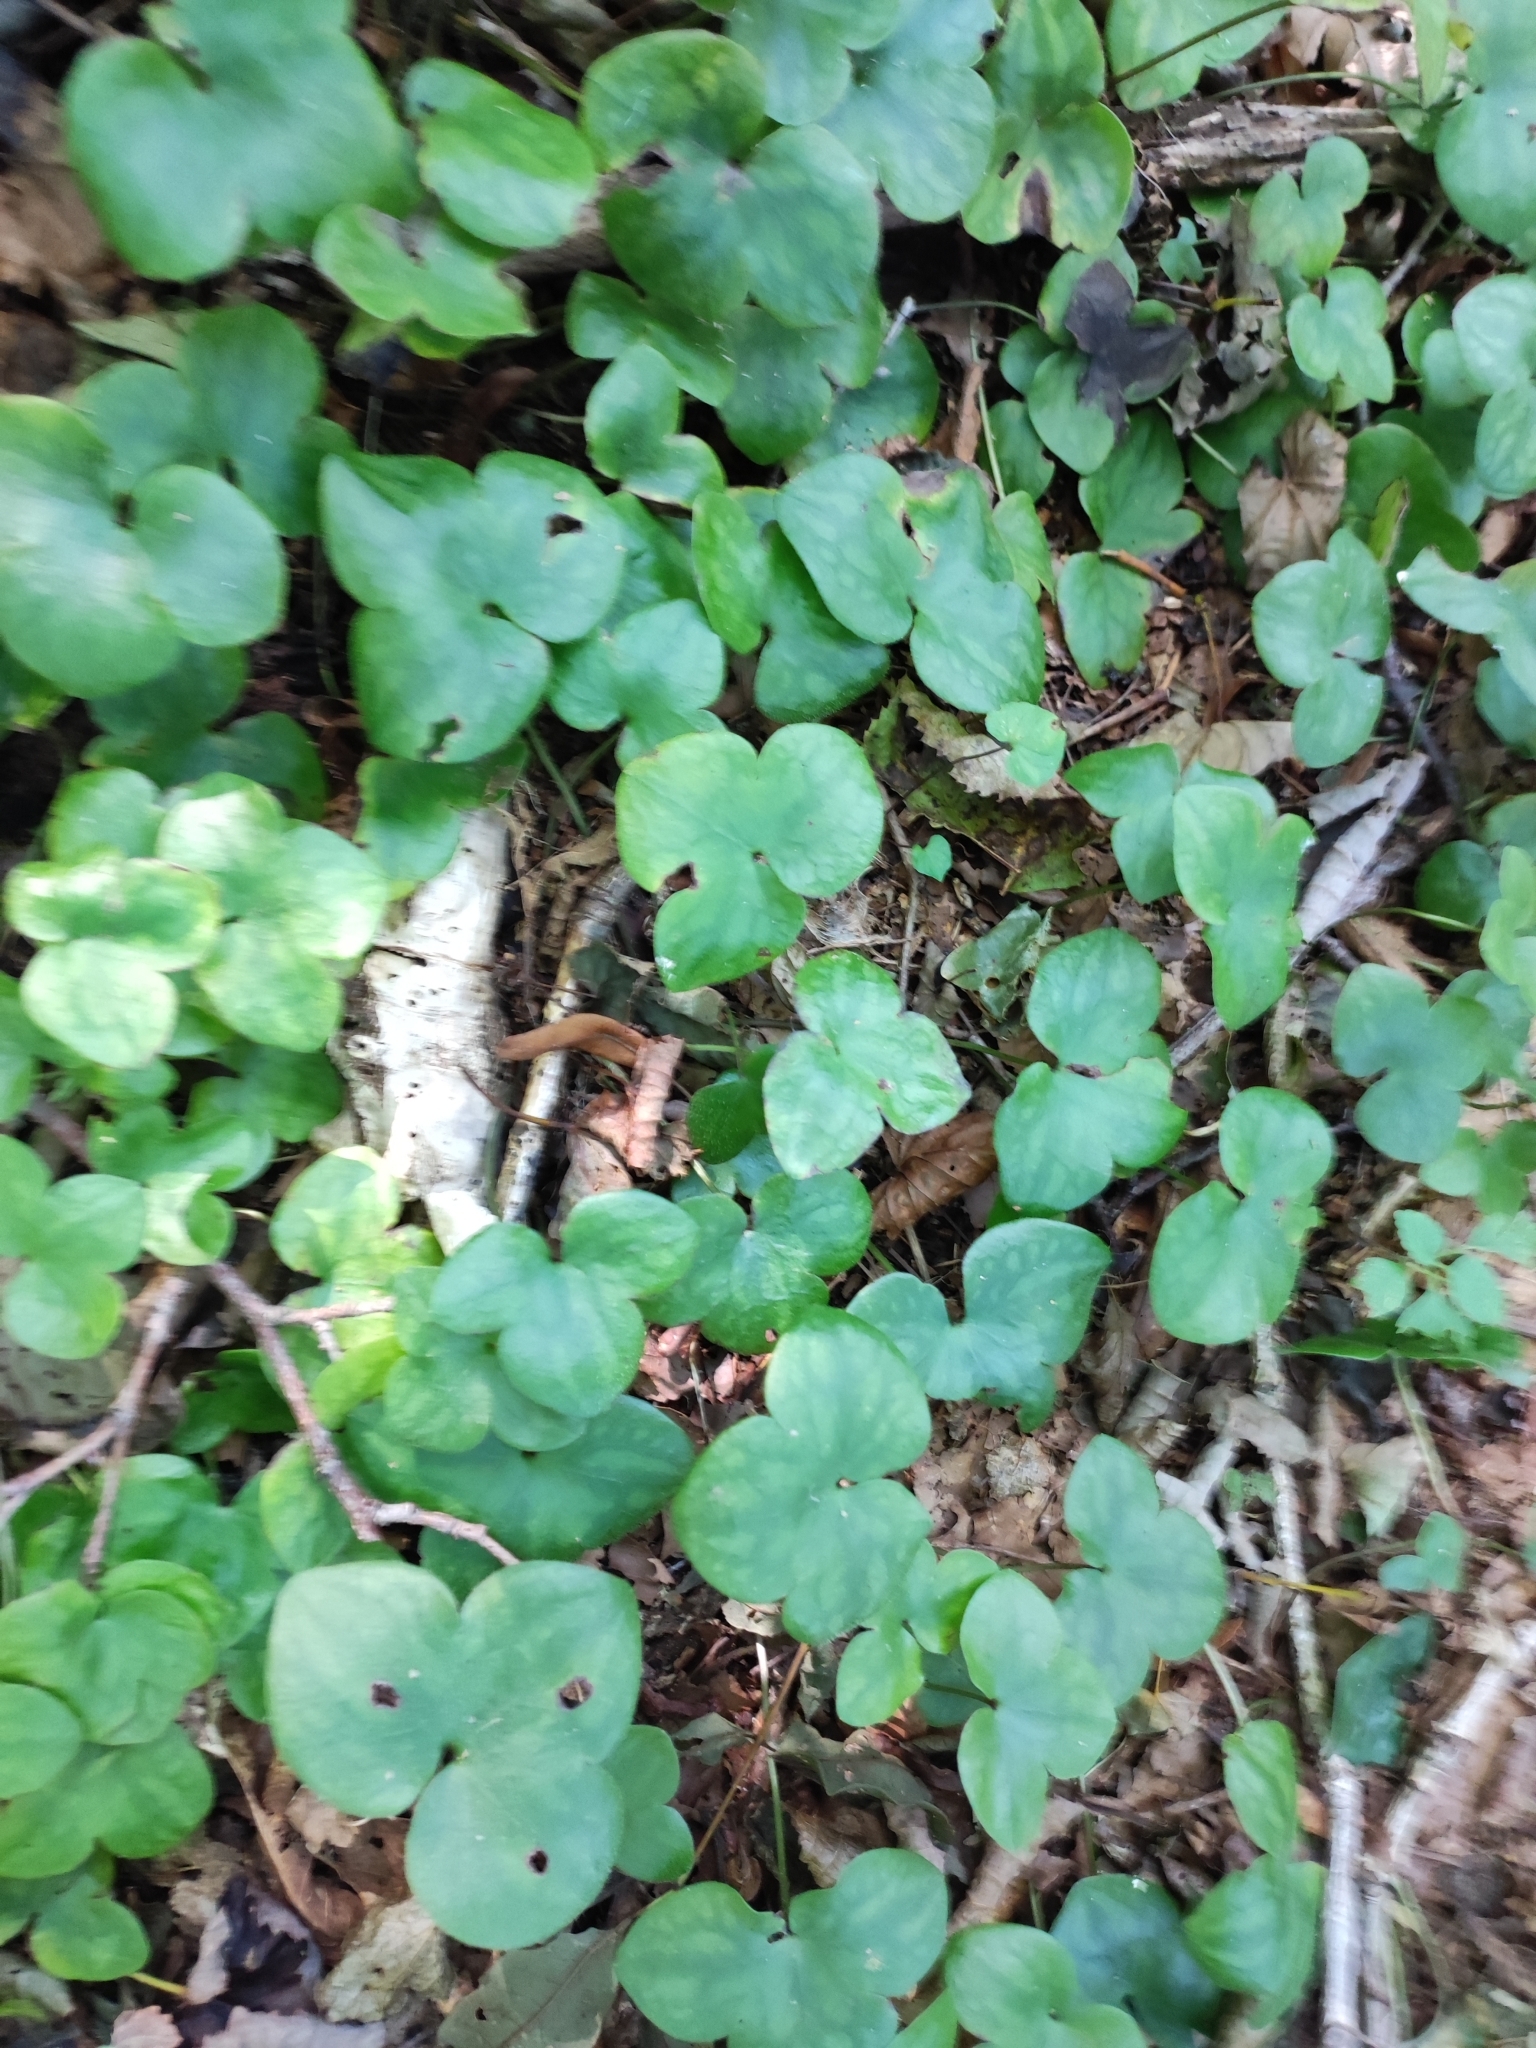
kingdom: Plantae
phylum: Tracheophyta
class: Magnoliopsida
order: Ranunculales
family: Ranunculaceae
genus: Hepatica
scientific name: Hepatica asiatica
